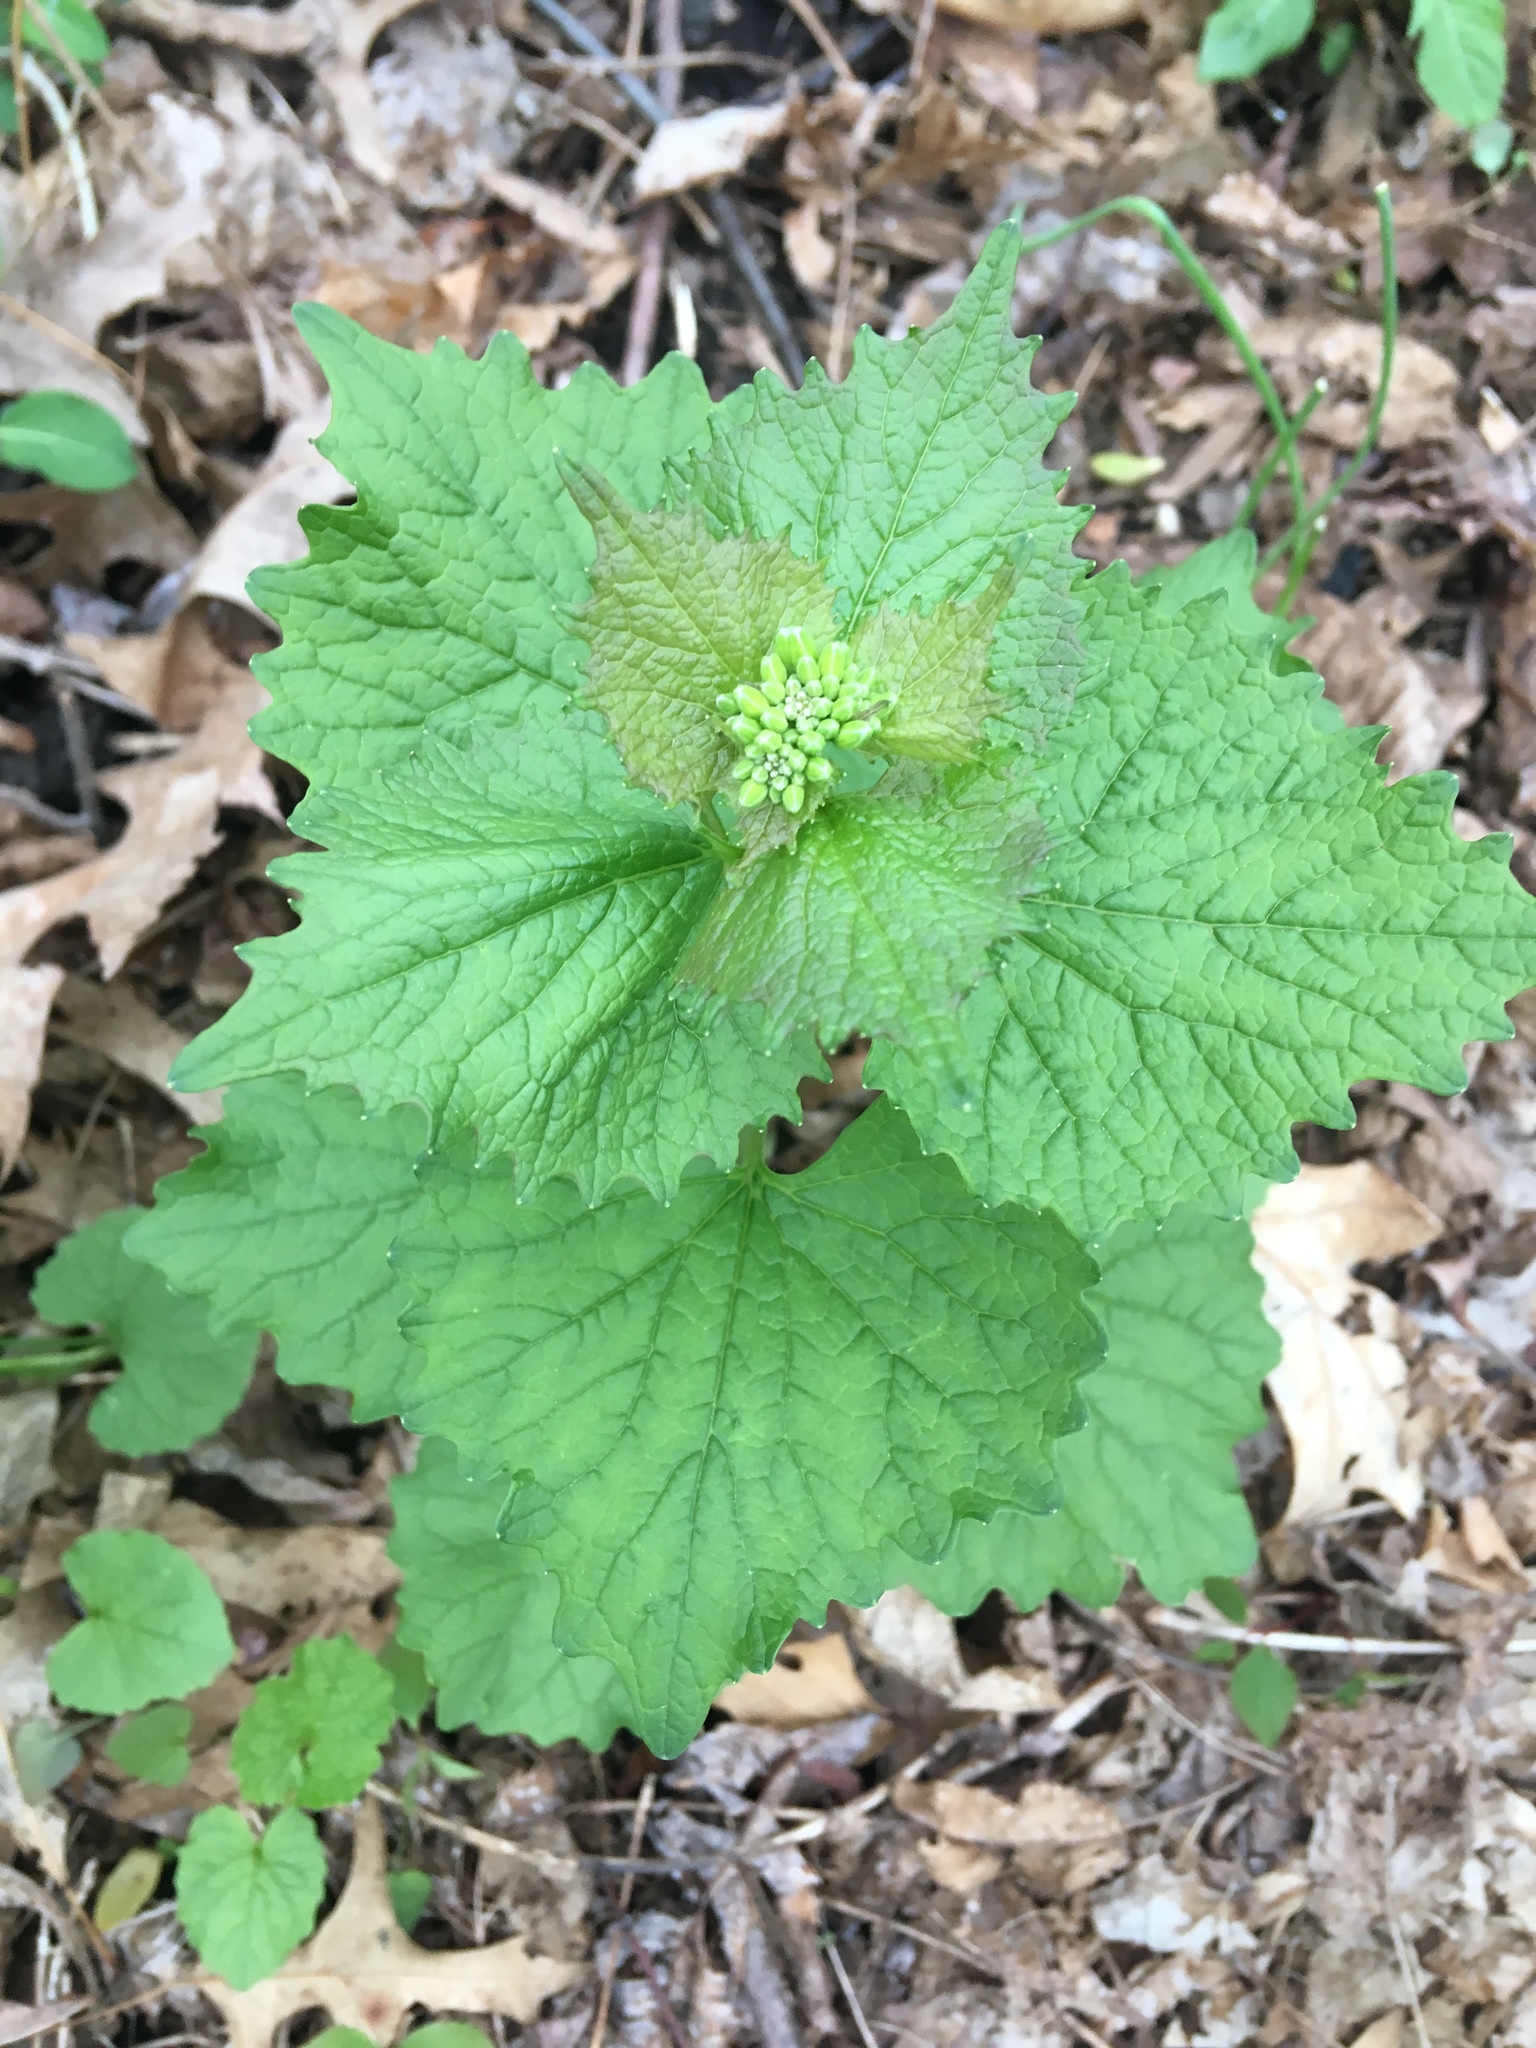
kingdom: Plantae
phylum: Tracheophyta
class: Magnoliopsida
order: Brassicales
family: Brassicaceae
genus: Alliaria
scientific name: Alliaria petiolata
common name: Garlic mustard
